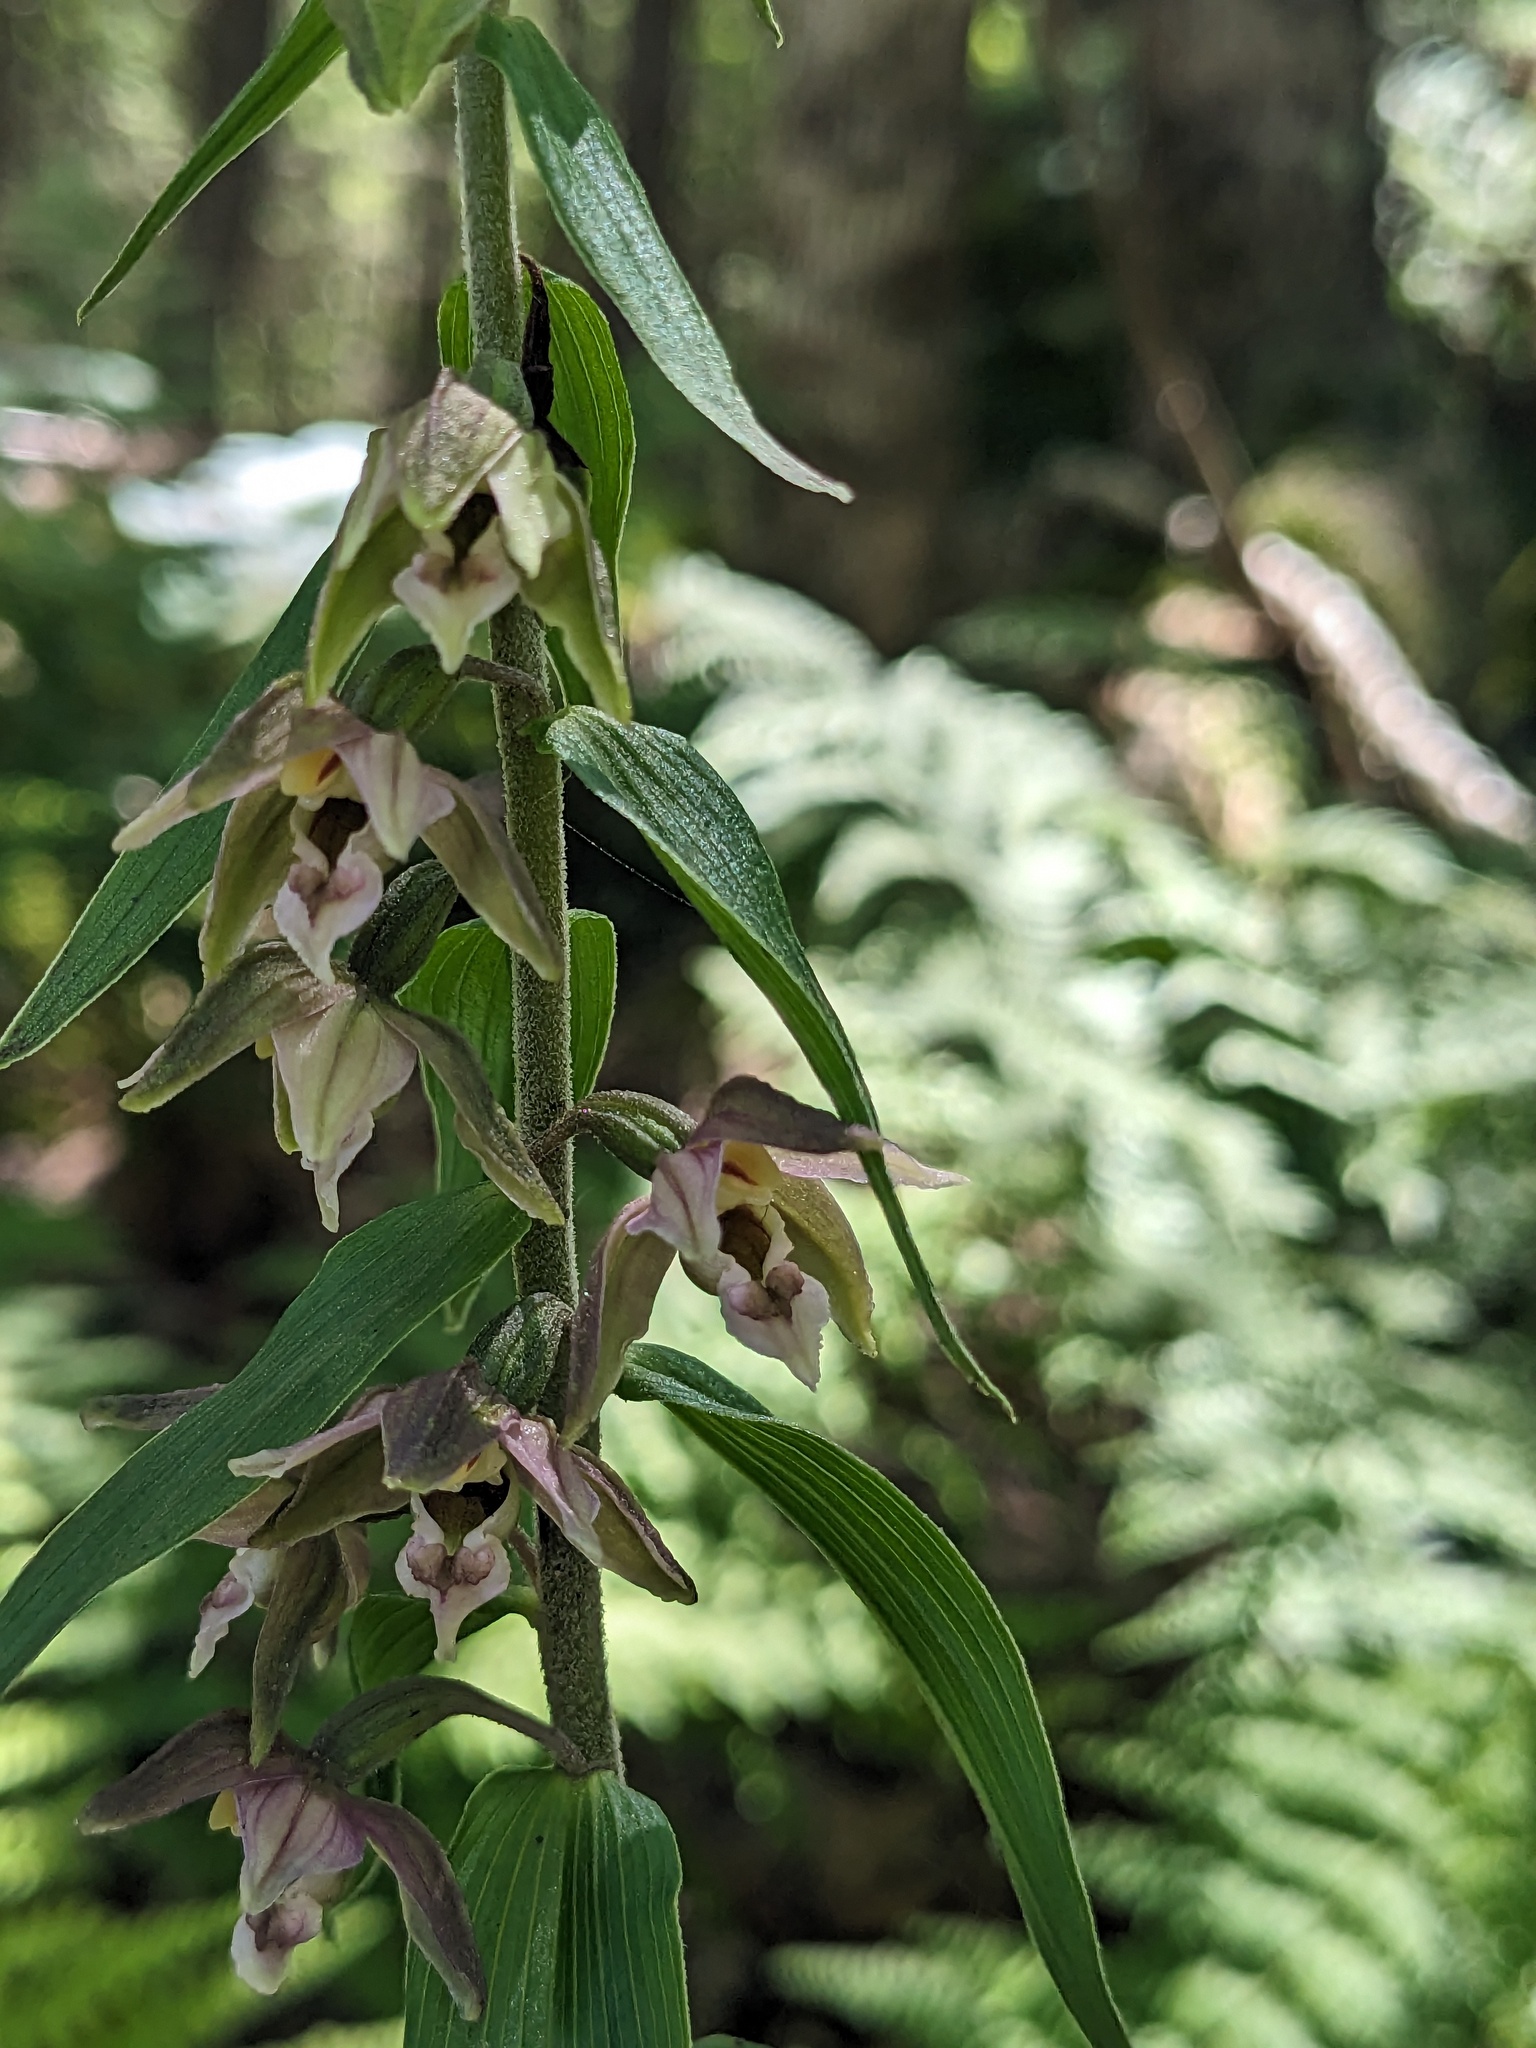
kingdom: Plantae
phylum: Tracheophyta
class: Liliopsida
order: Asparagales
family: Orchidaceae
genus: Epipactis
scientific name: Epipactis helleborine
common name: Broad-leaved helleborine
